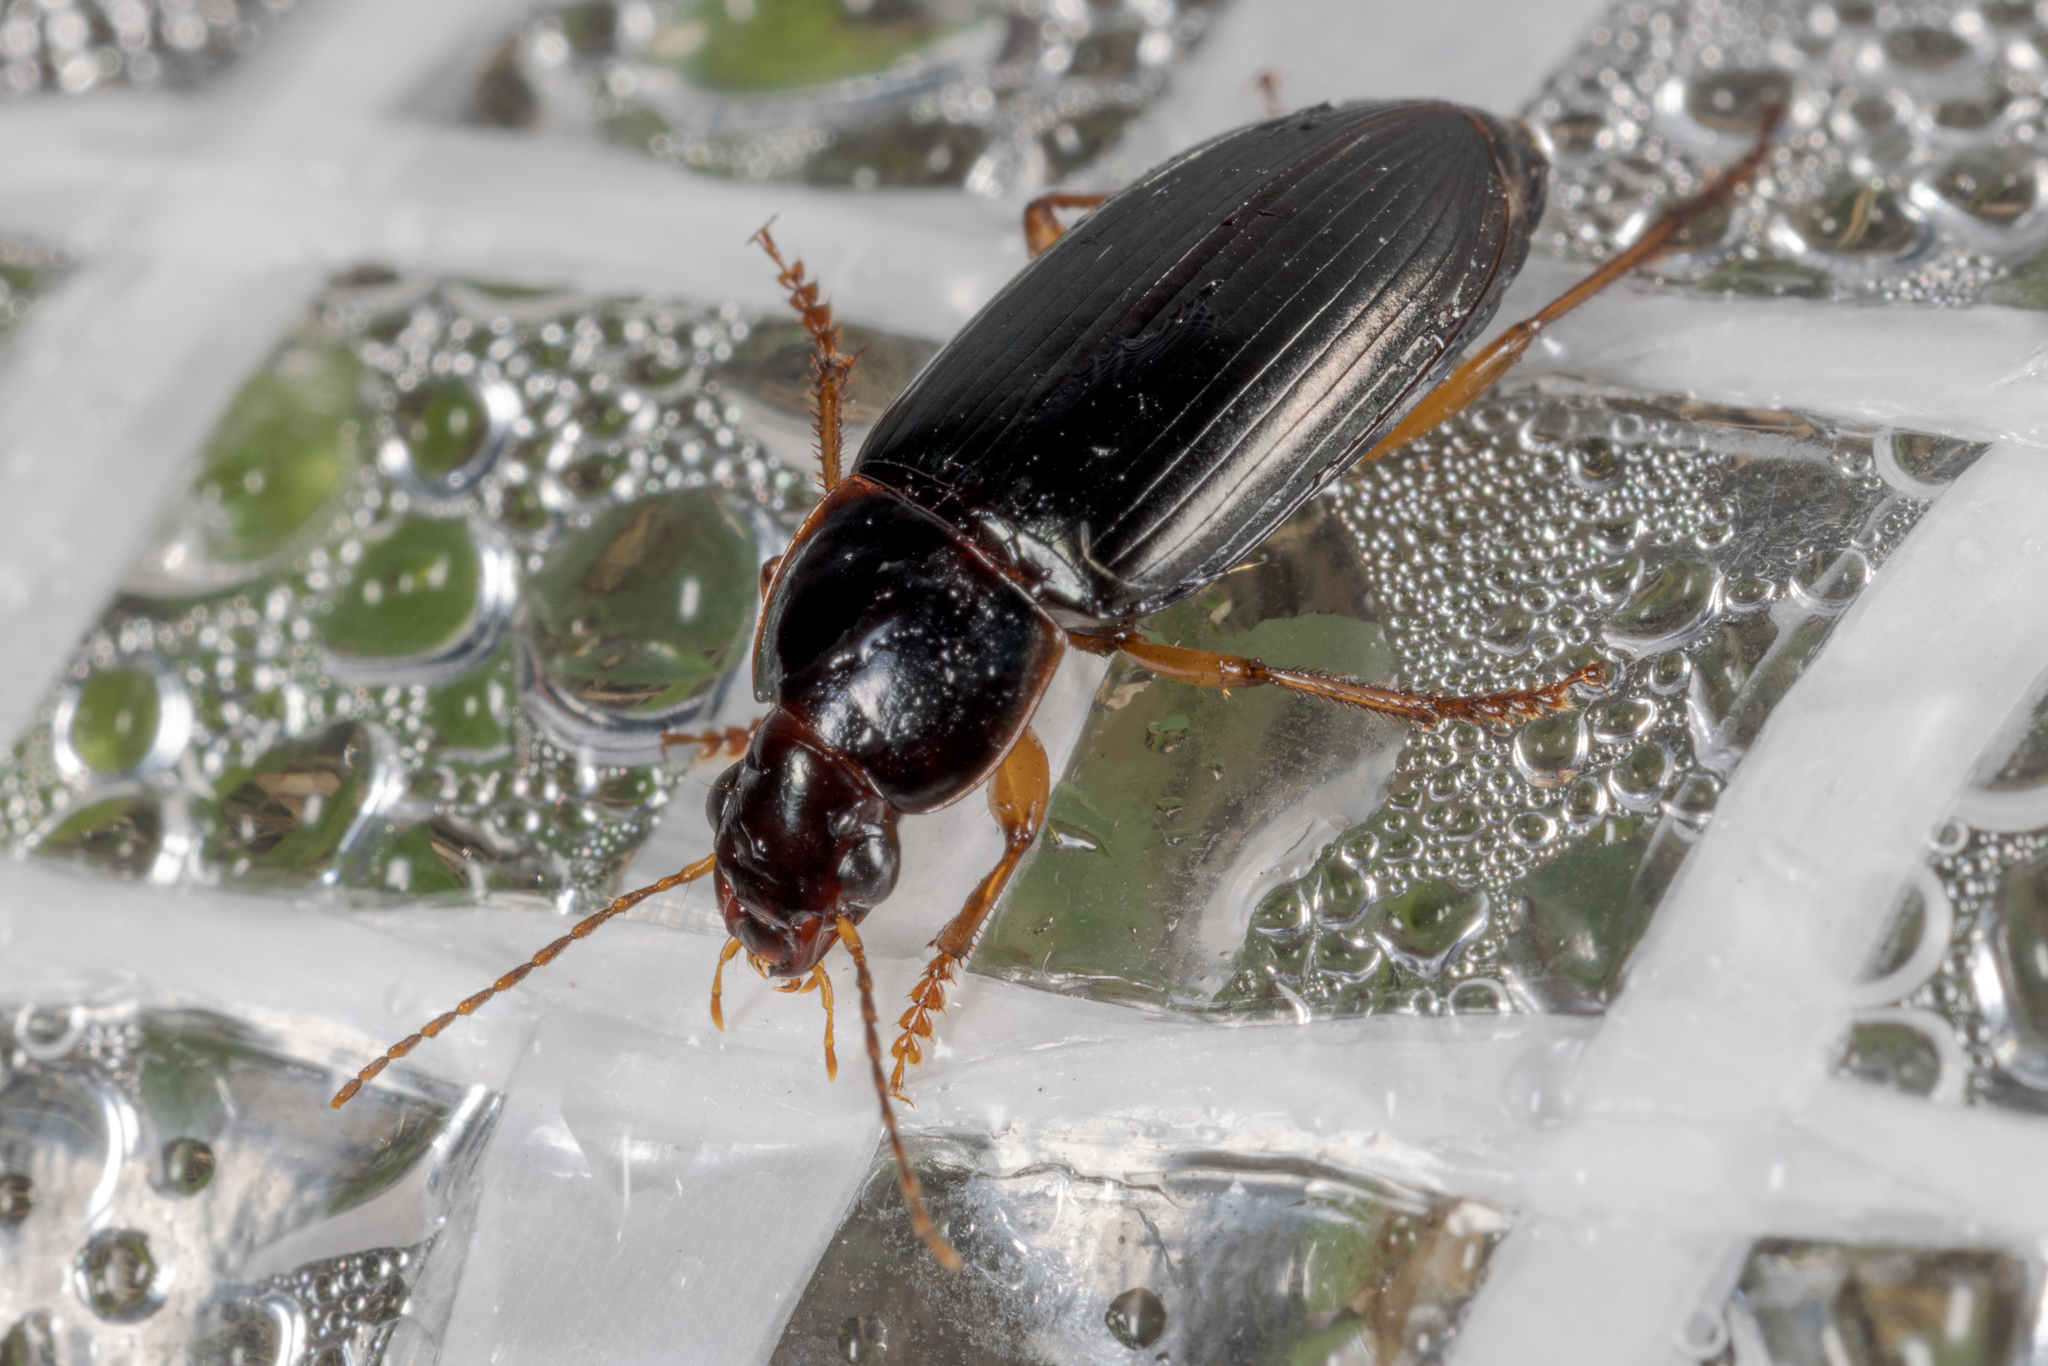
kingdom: Animalia
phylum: Arthropoda
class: Insecta
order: Coleoptera
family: Carabidae
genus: Notiobia
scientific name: Notiobia terminata
